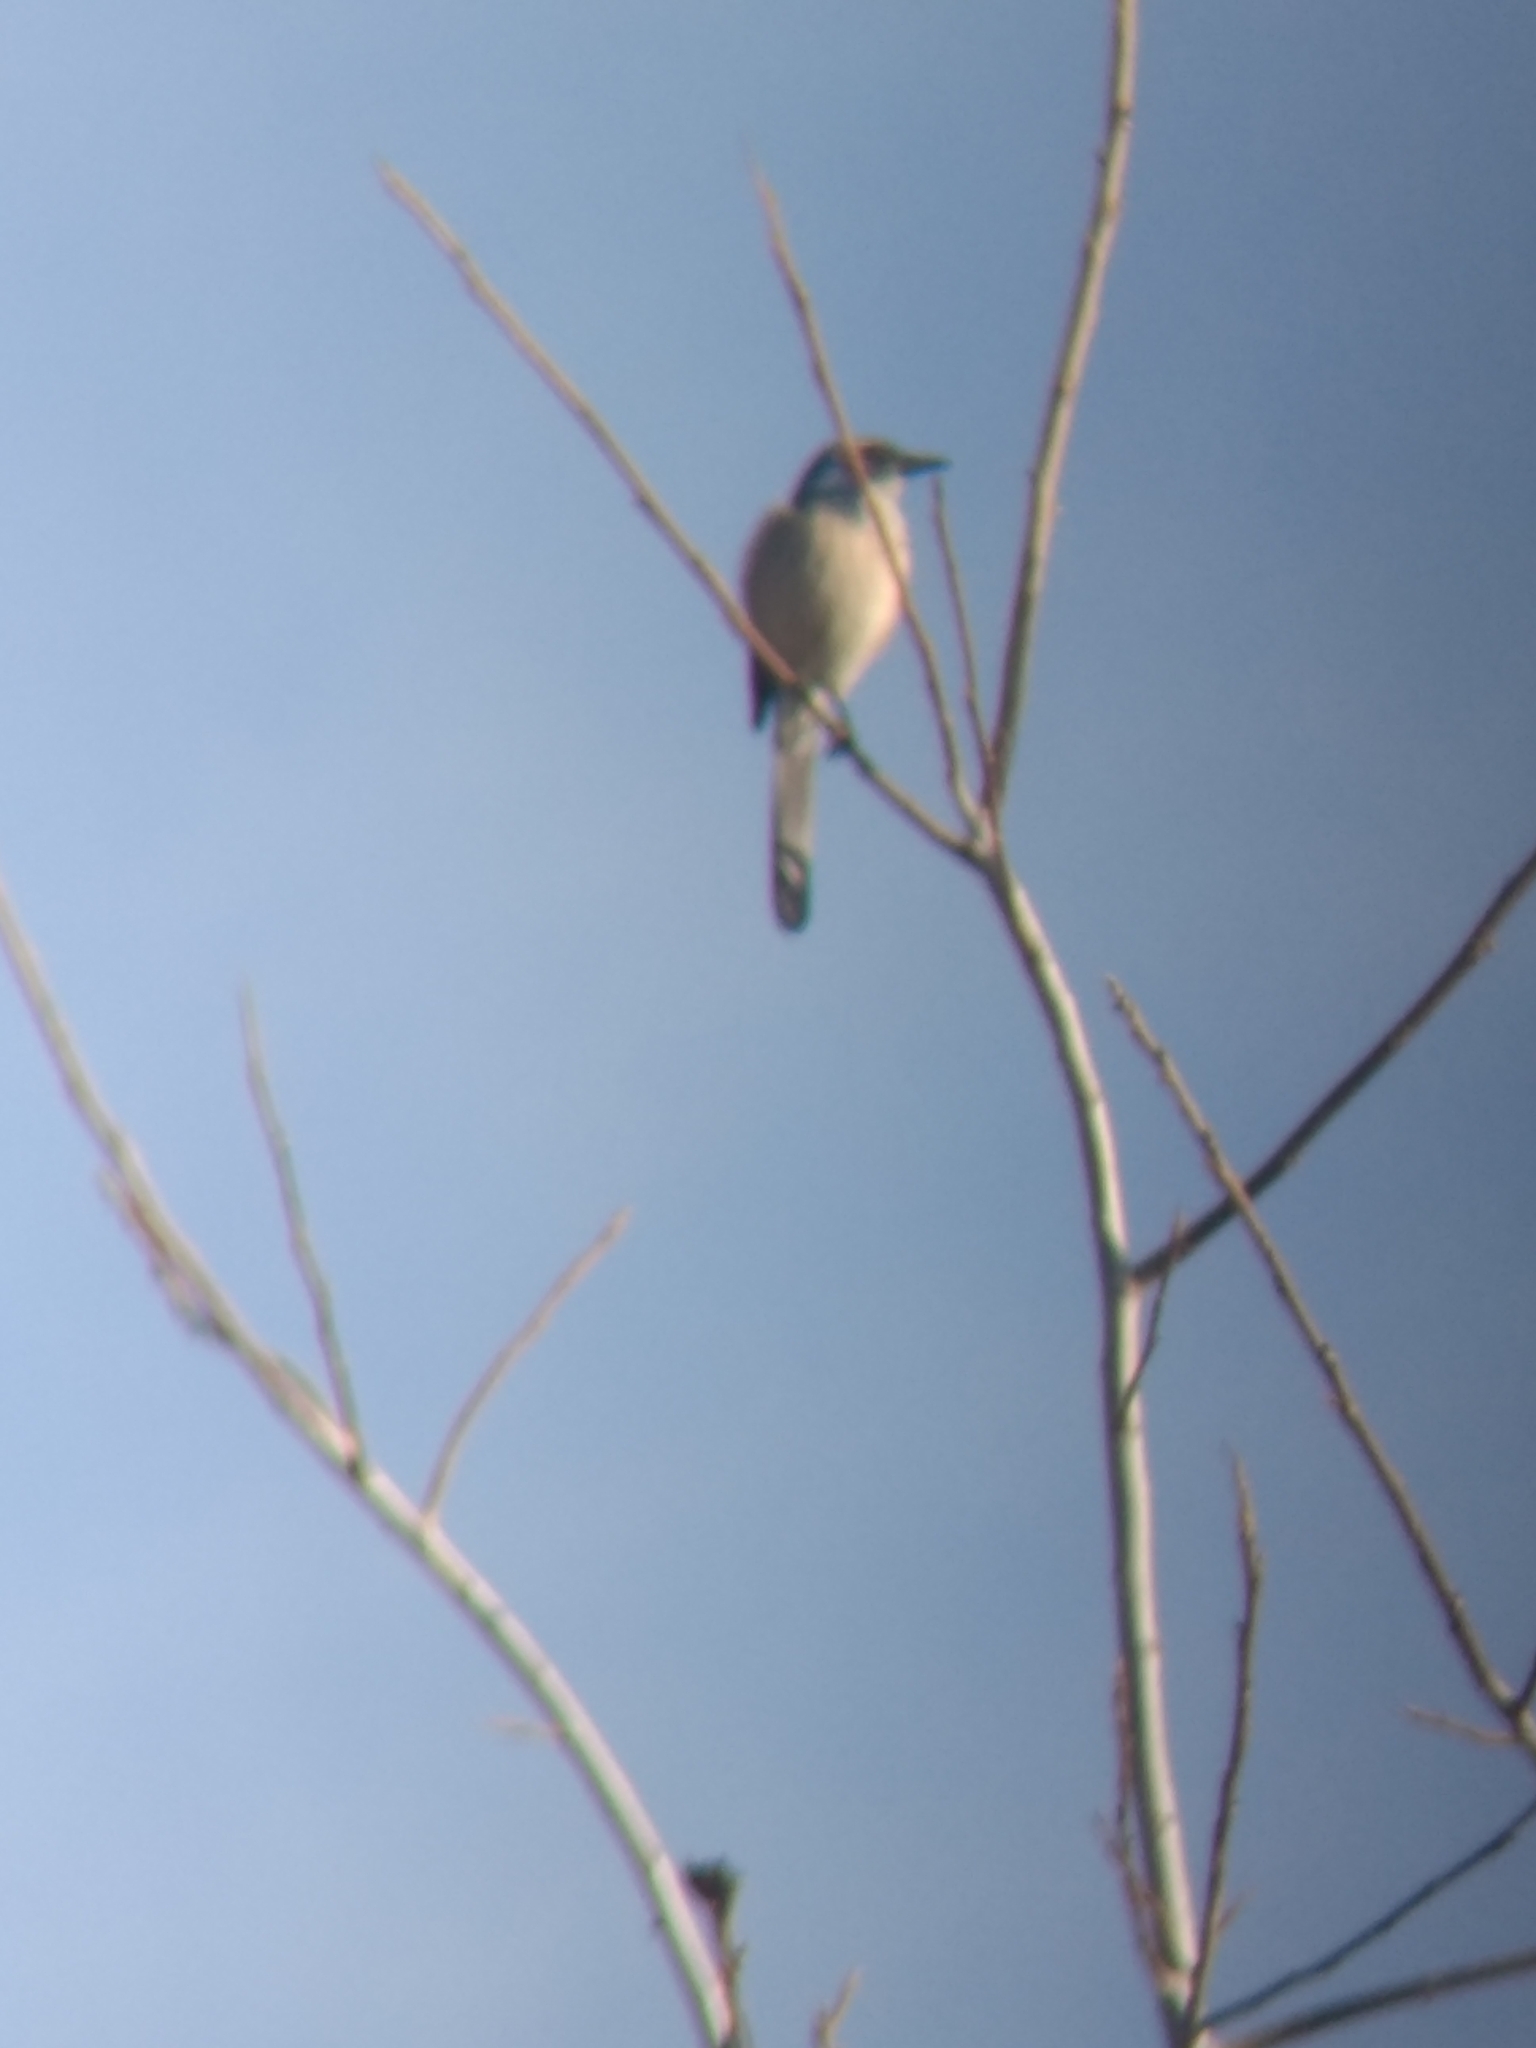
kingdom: Animalia
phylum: Chordata
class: Aves
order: Passeriformes
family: Corvidae
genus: Aphelocoma
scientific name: Aphelocoma californica
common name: California scrub-jay
